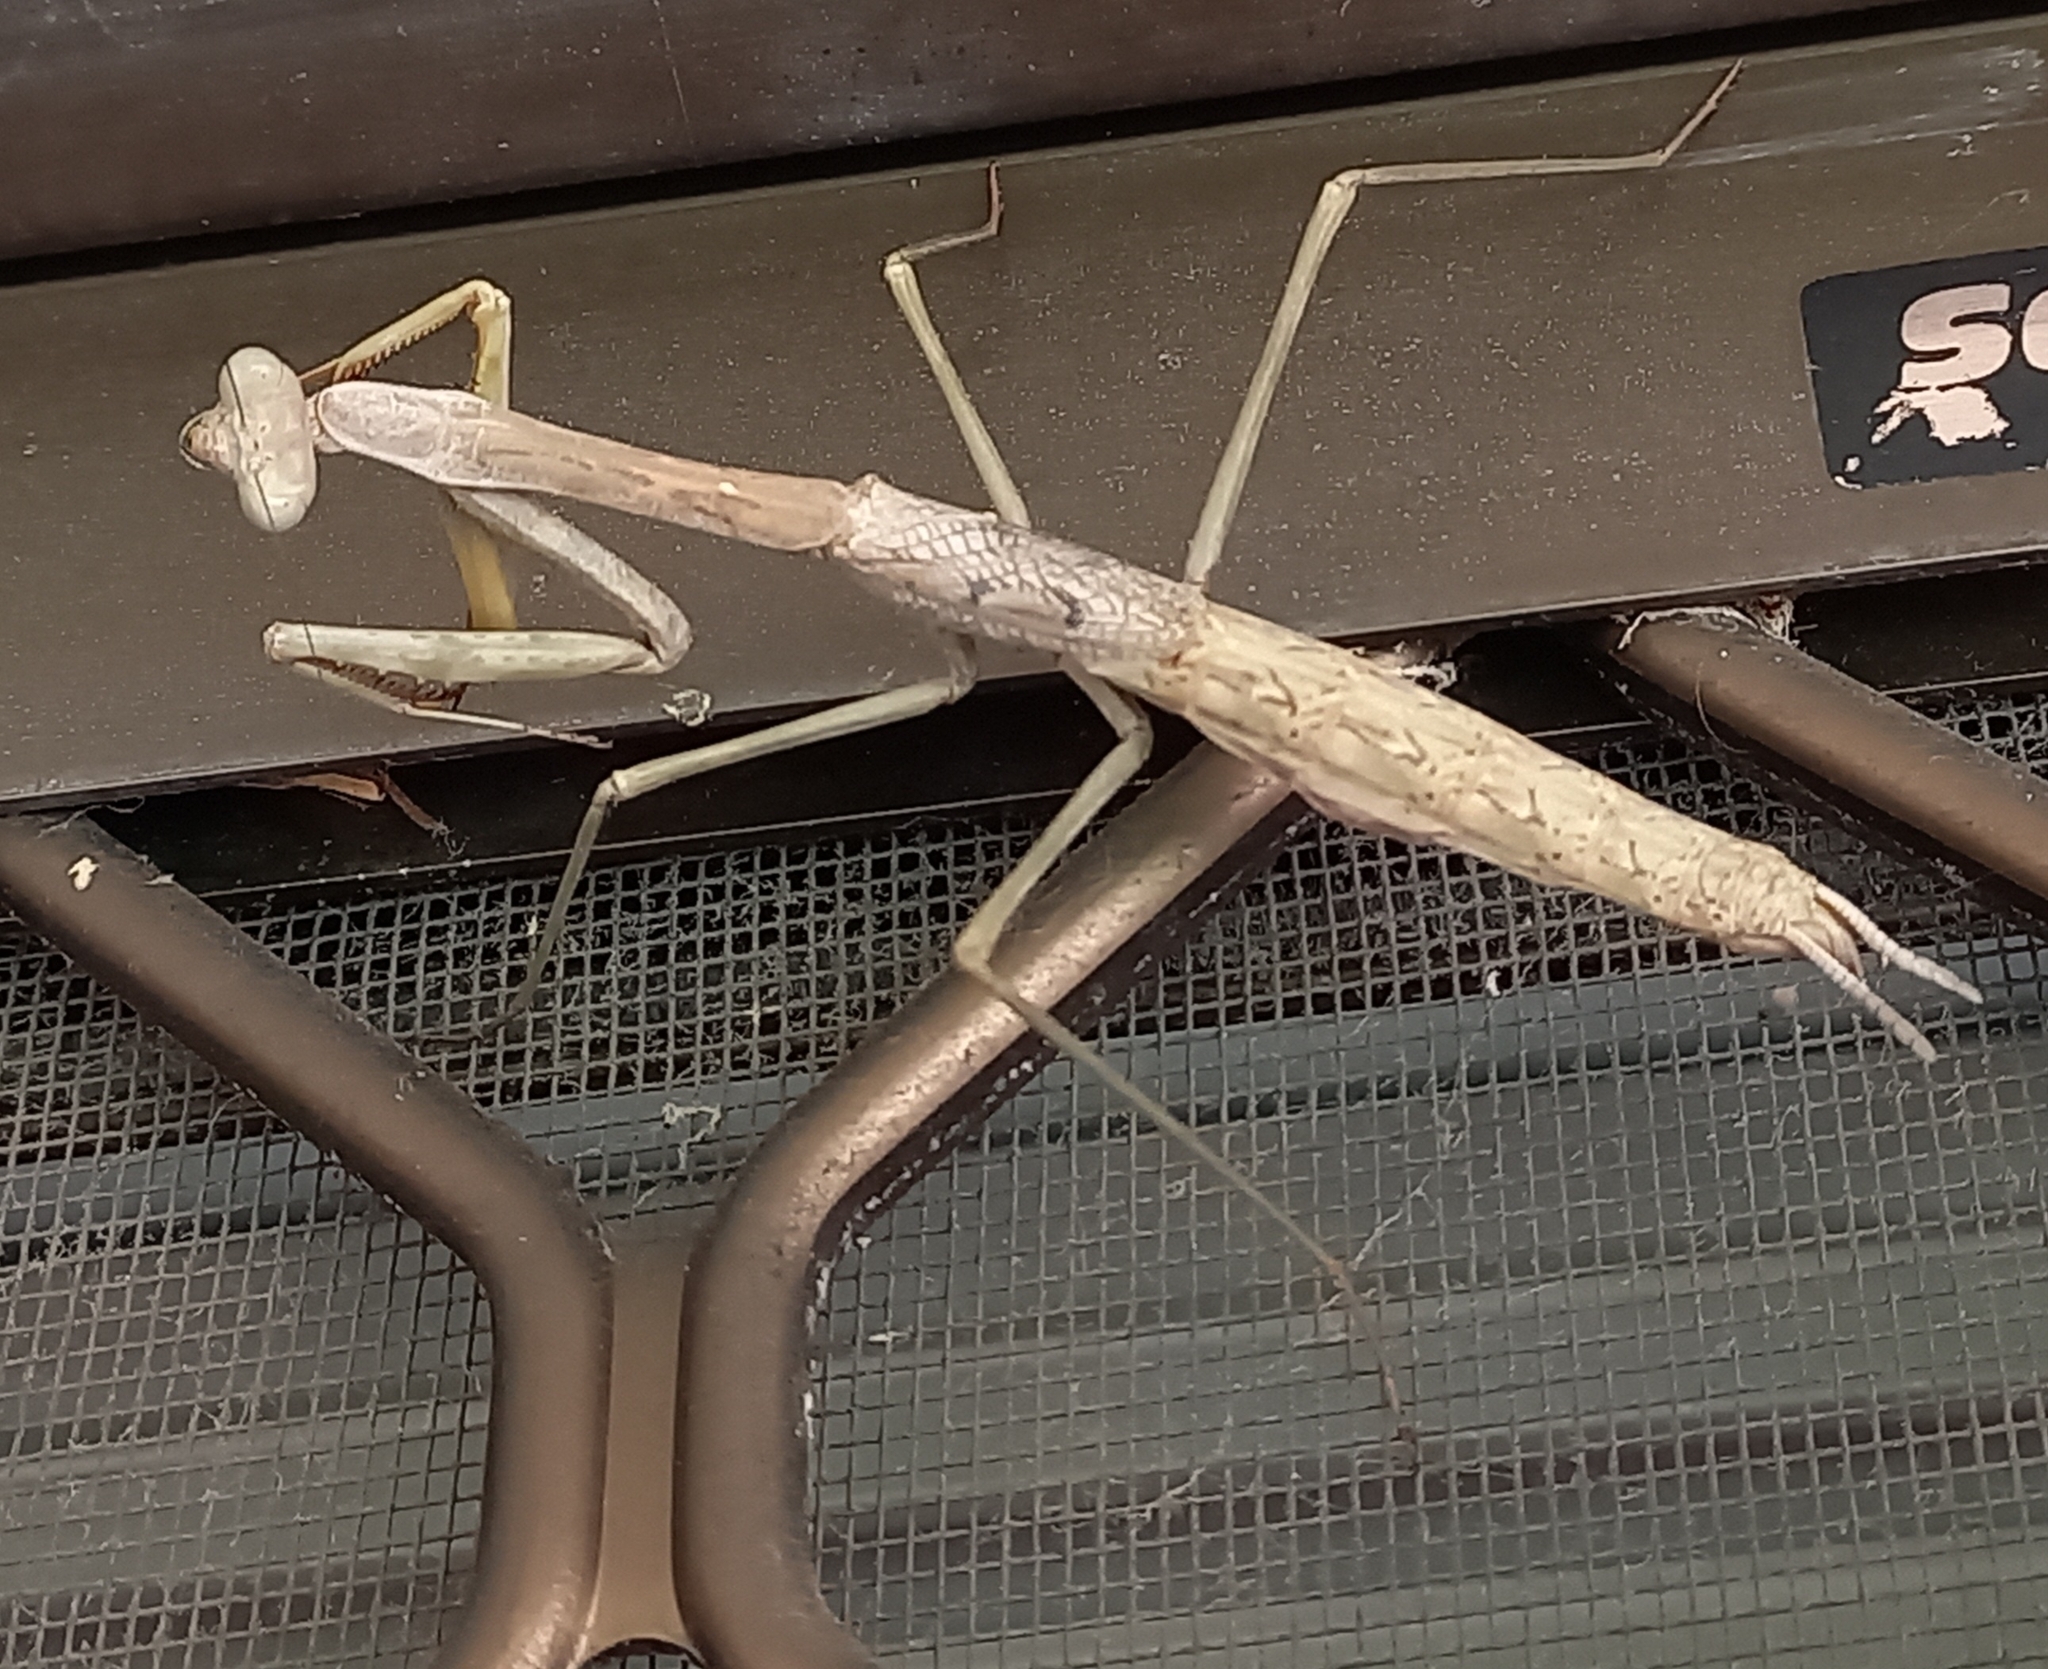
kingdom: Animalia
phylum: Arthropoda
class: Insecta
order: Mantodea
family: Mantidae
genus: Archimantis
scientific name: Archimantis sobrina
